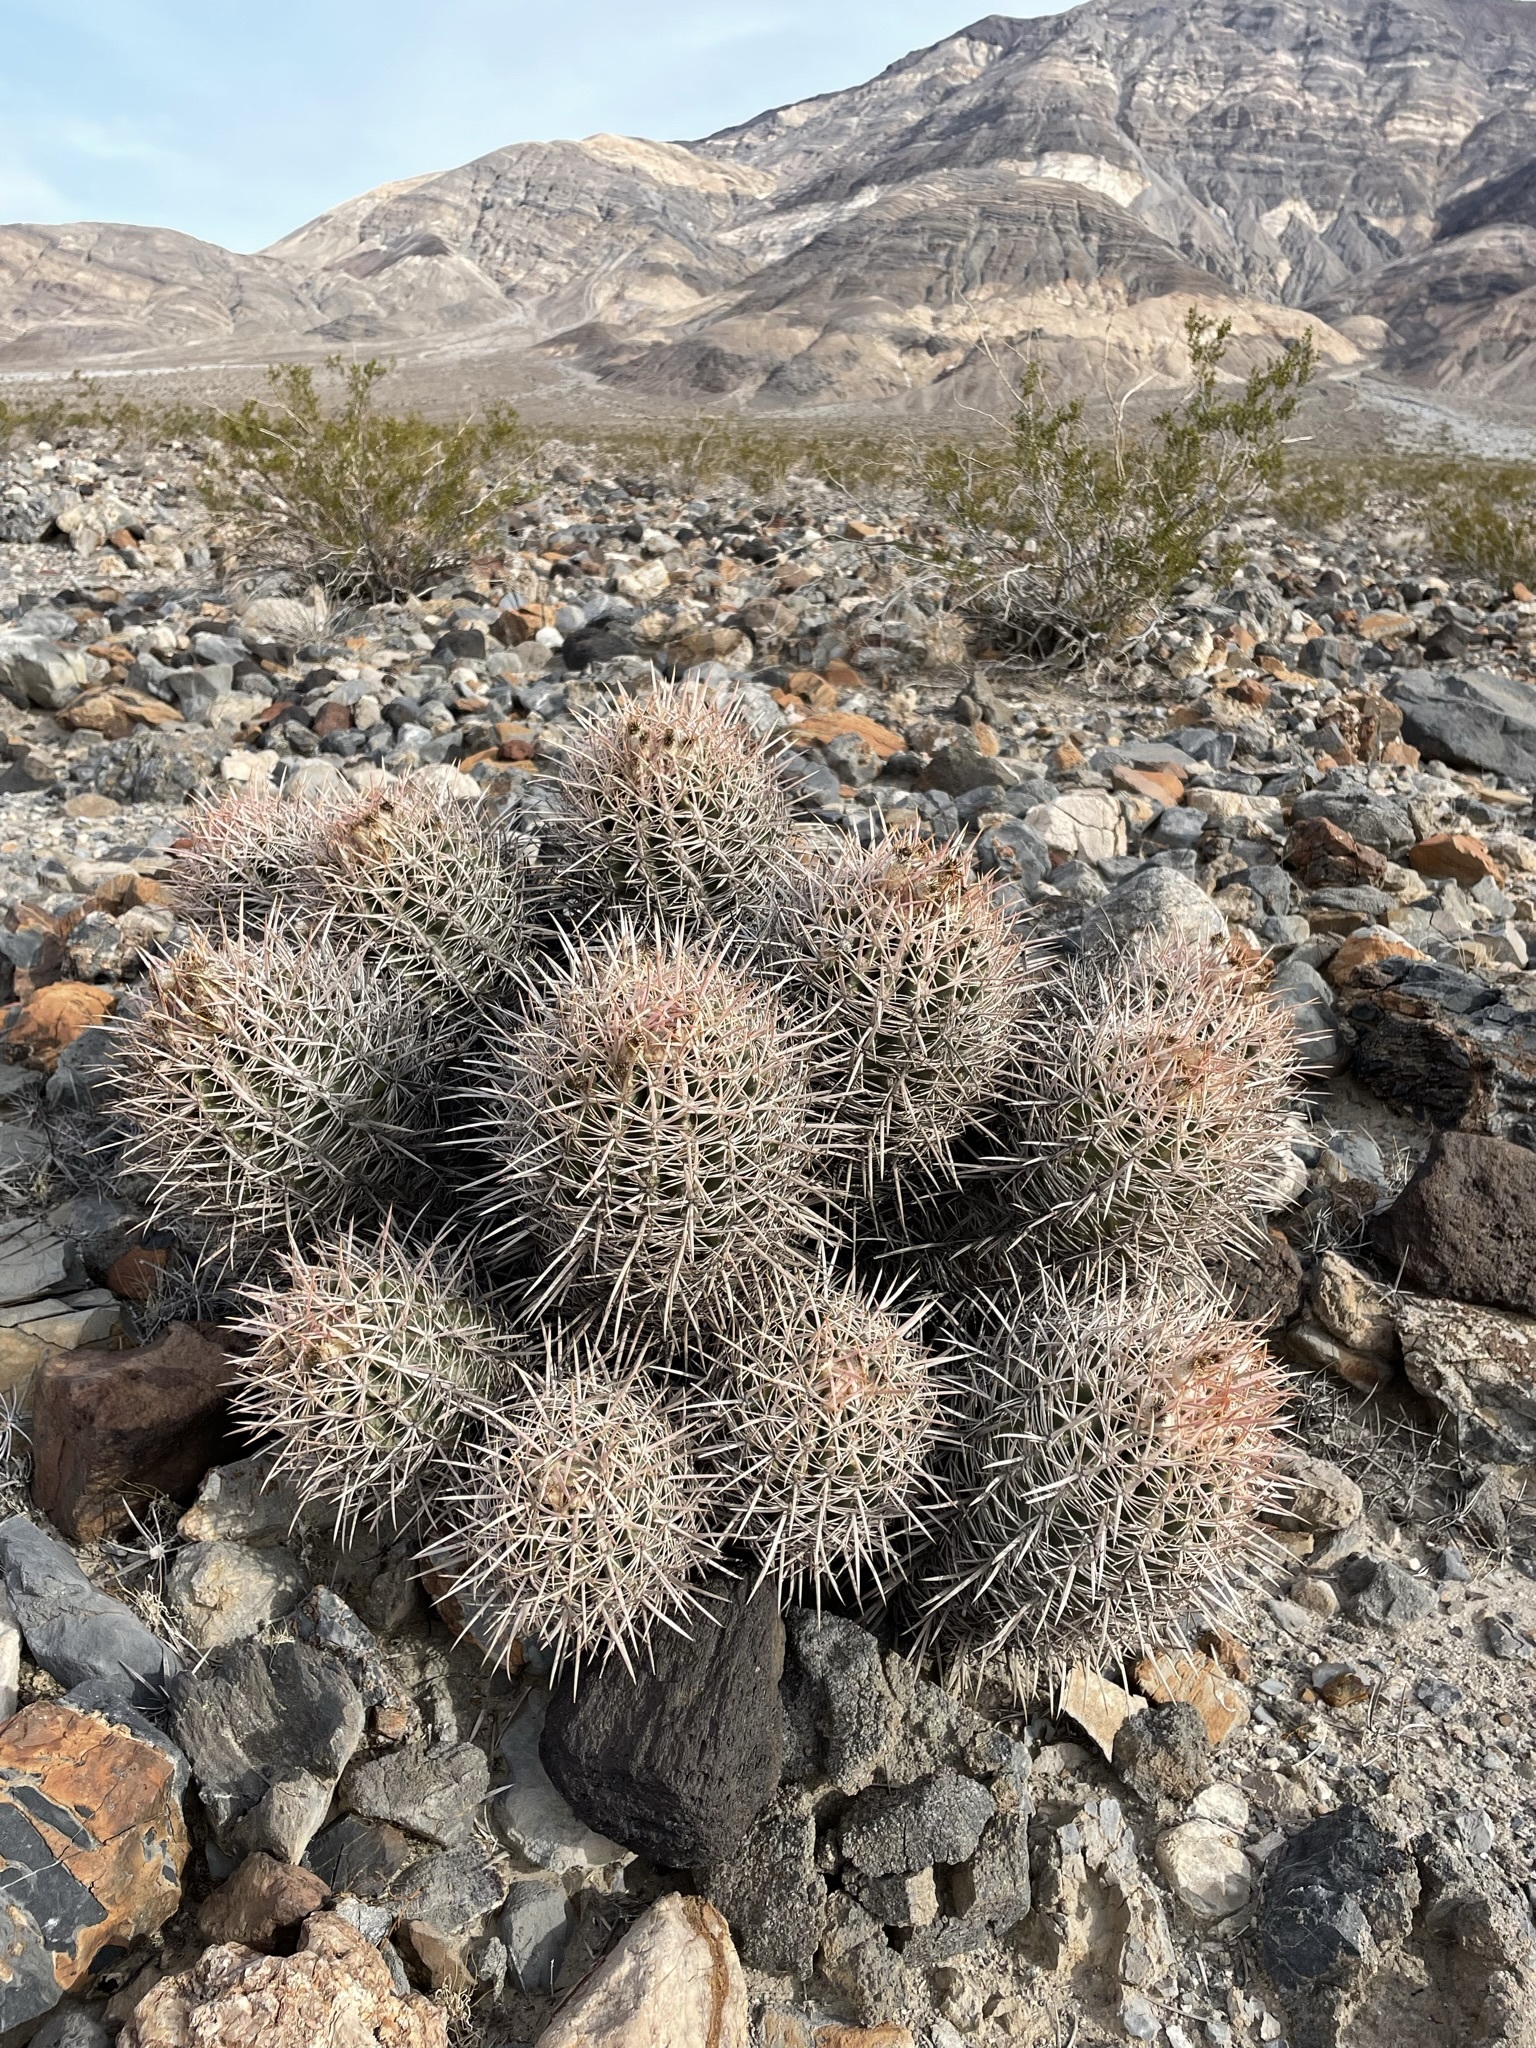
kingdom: Plantae
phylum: Tracheophyta
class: Magnoliopsida
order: Caryophyllales
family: Cactaceae
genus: Echinocactus
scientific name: Echinocactus polycephalus
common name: Cottontop cactus
